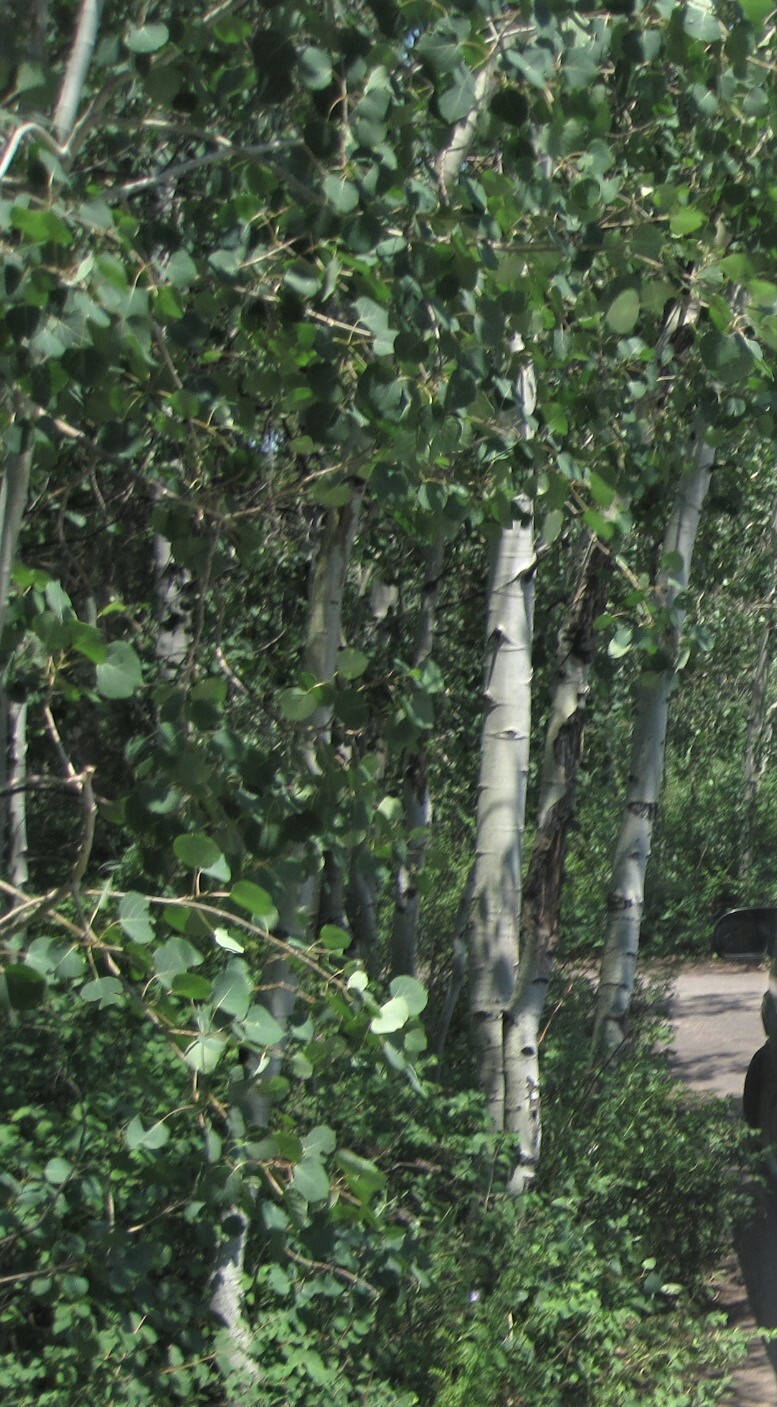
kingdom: Plantae
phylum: Tracheophyta
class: Magnoliopsida
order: Malpighiales
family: Salicaceae
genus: Populus
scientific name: Populus tremuloides
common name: Quaking aspen
